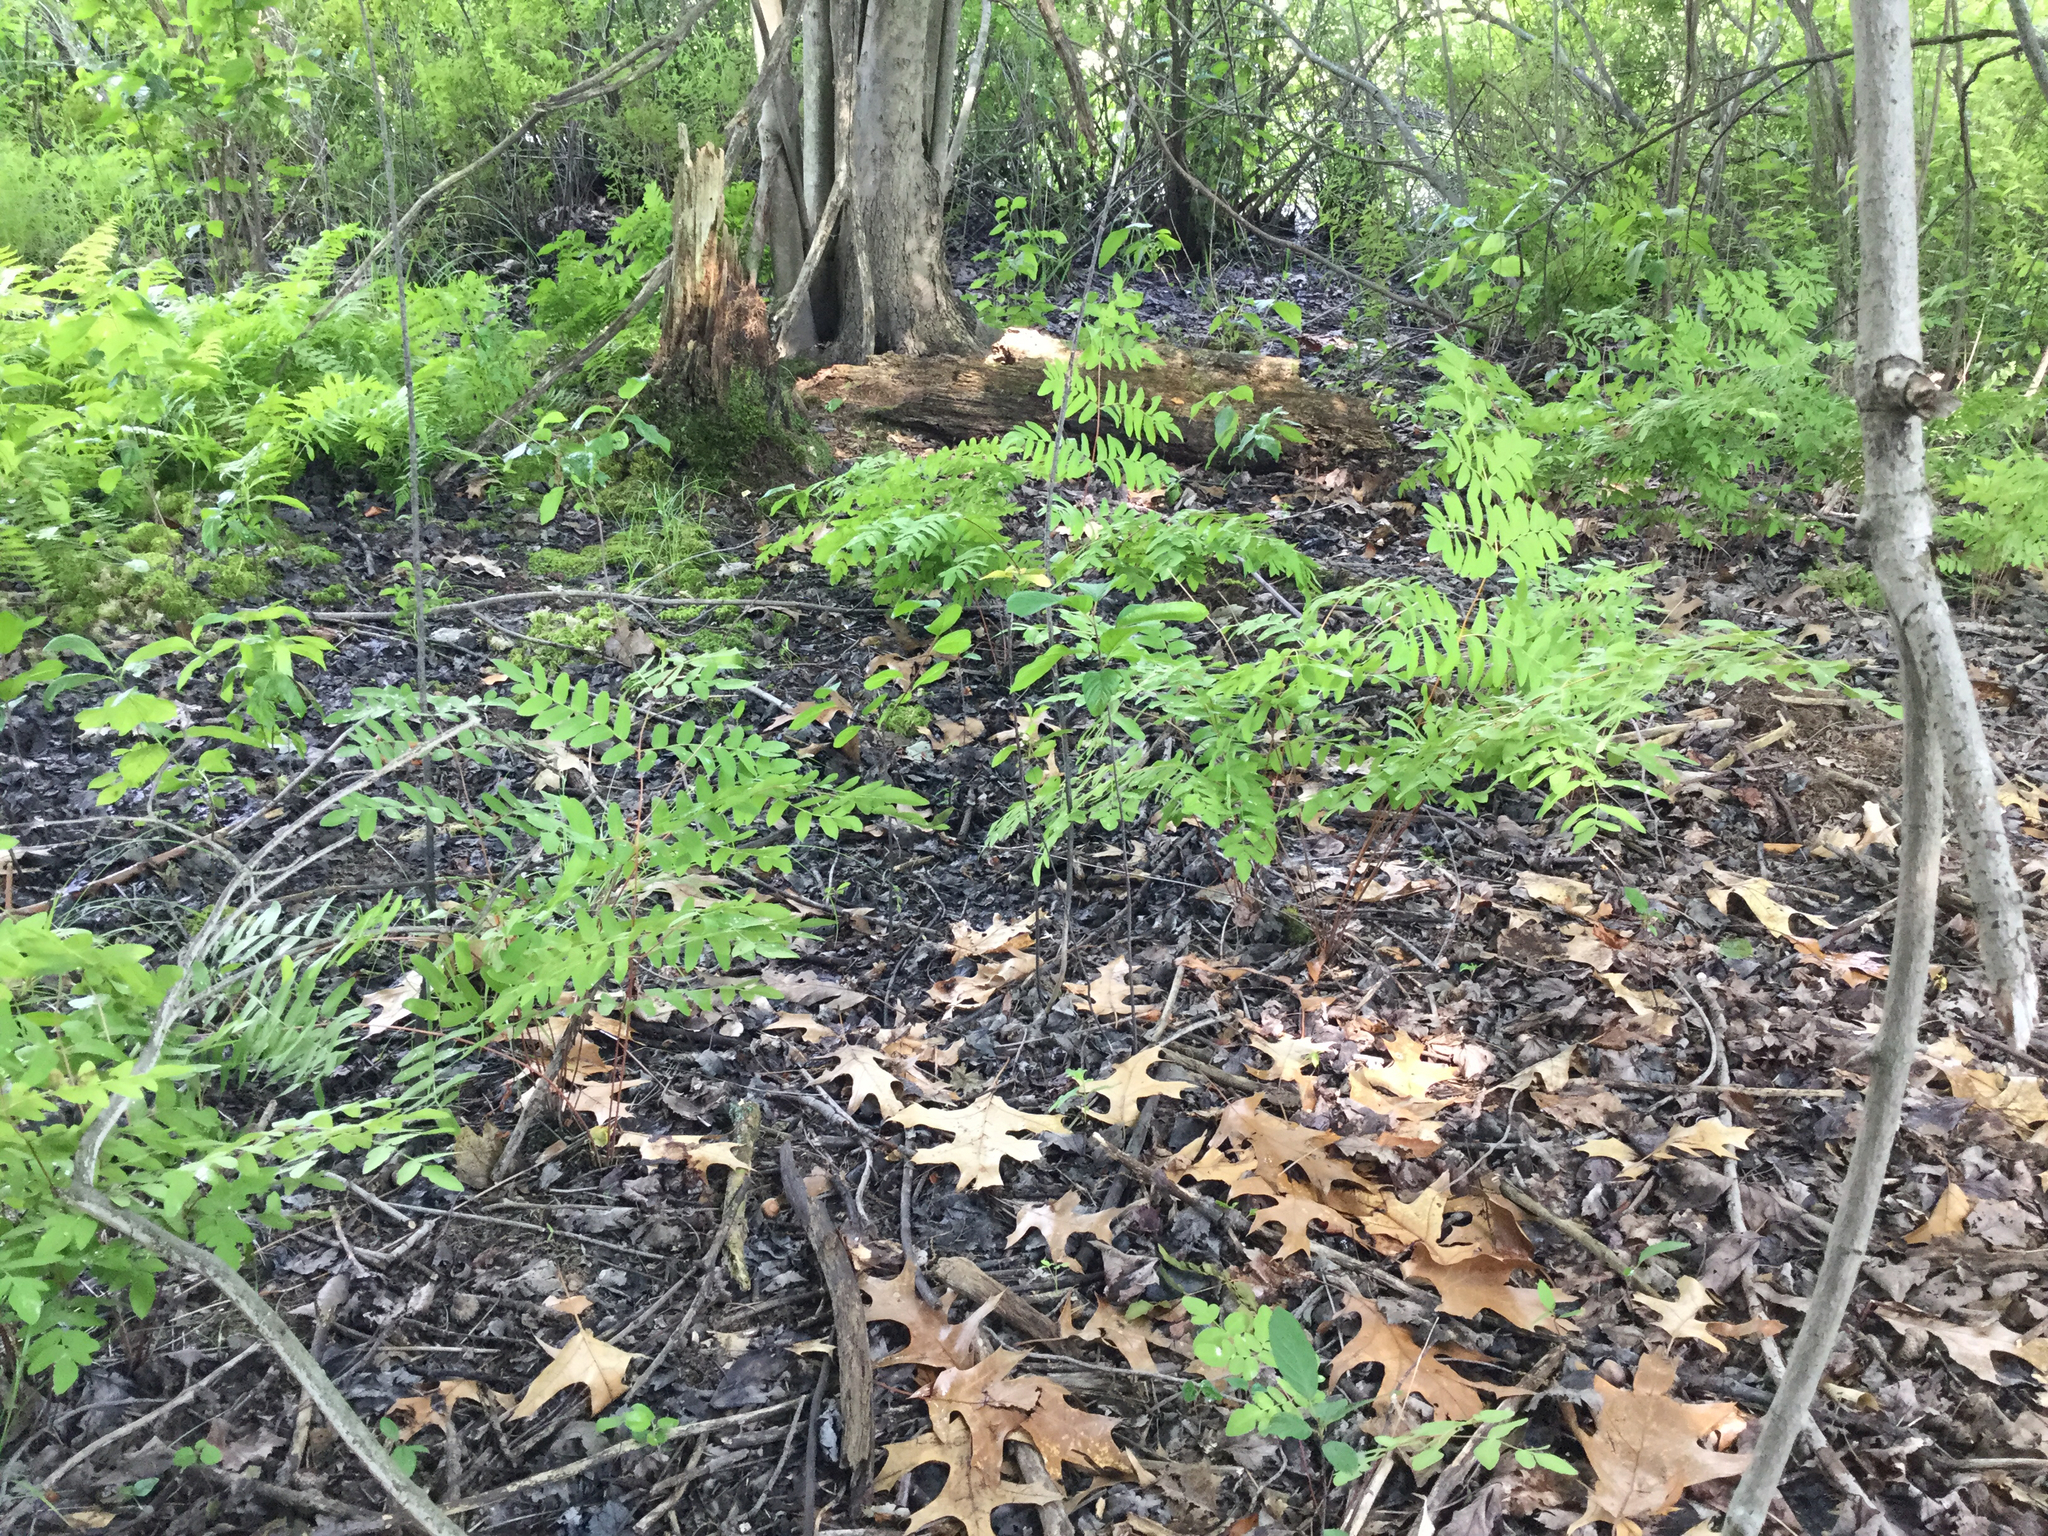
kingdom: Plantae
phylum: Tracheophyta
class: Polypodiopsida
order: Osmundales
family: Osmundaceae
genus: Osmunda
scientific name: Osmunda spectabilis
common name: American royal fern
